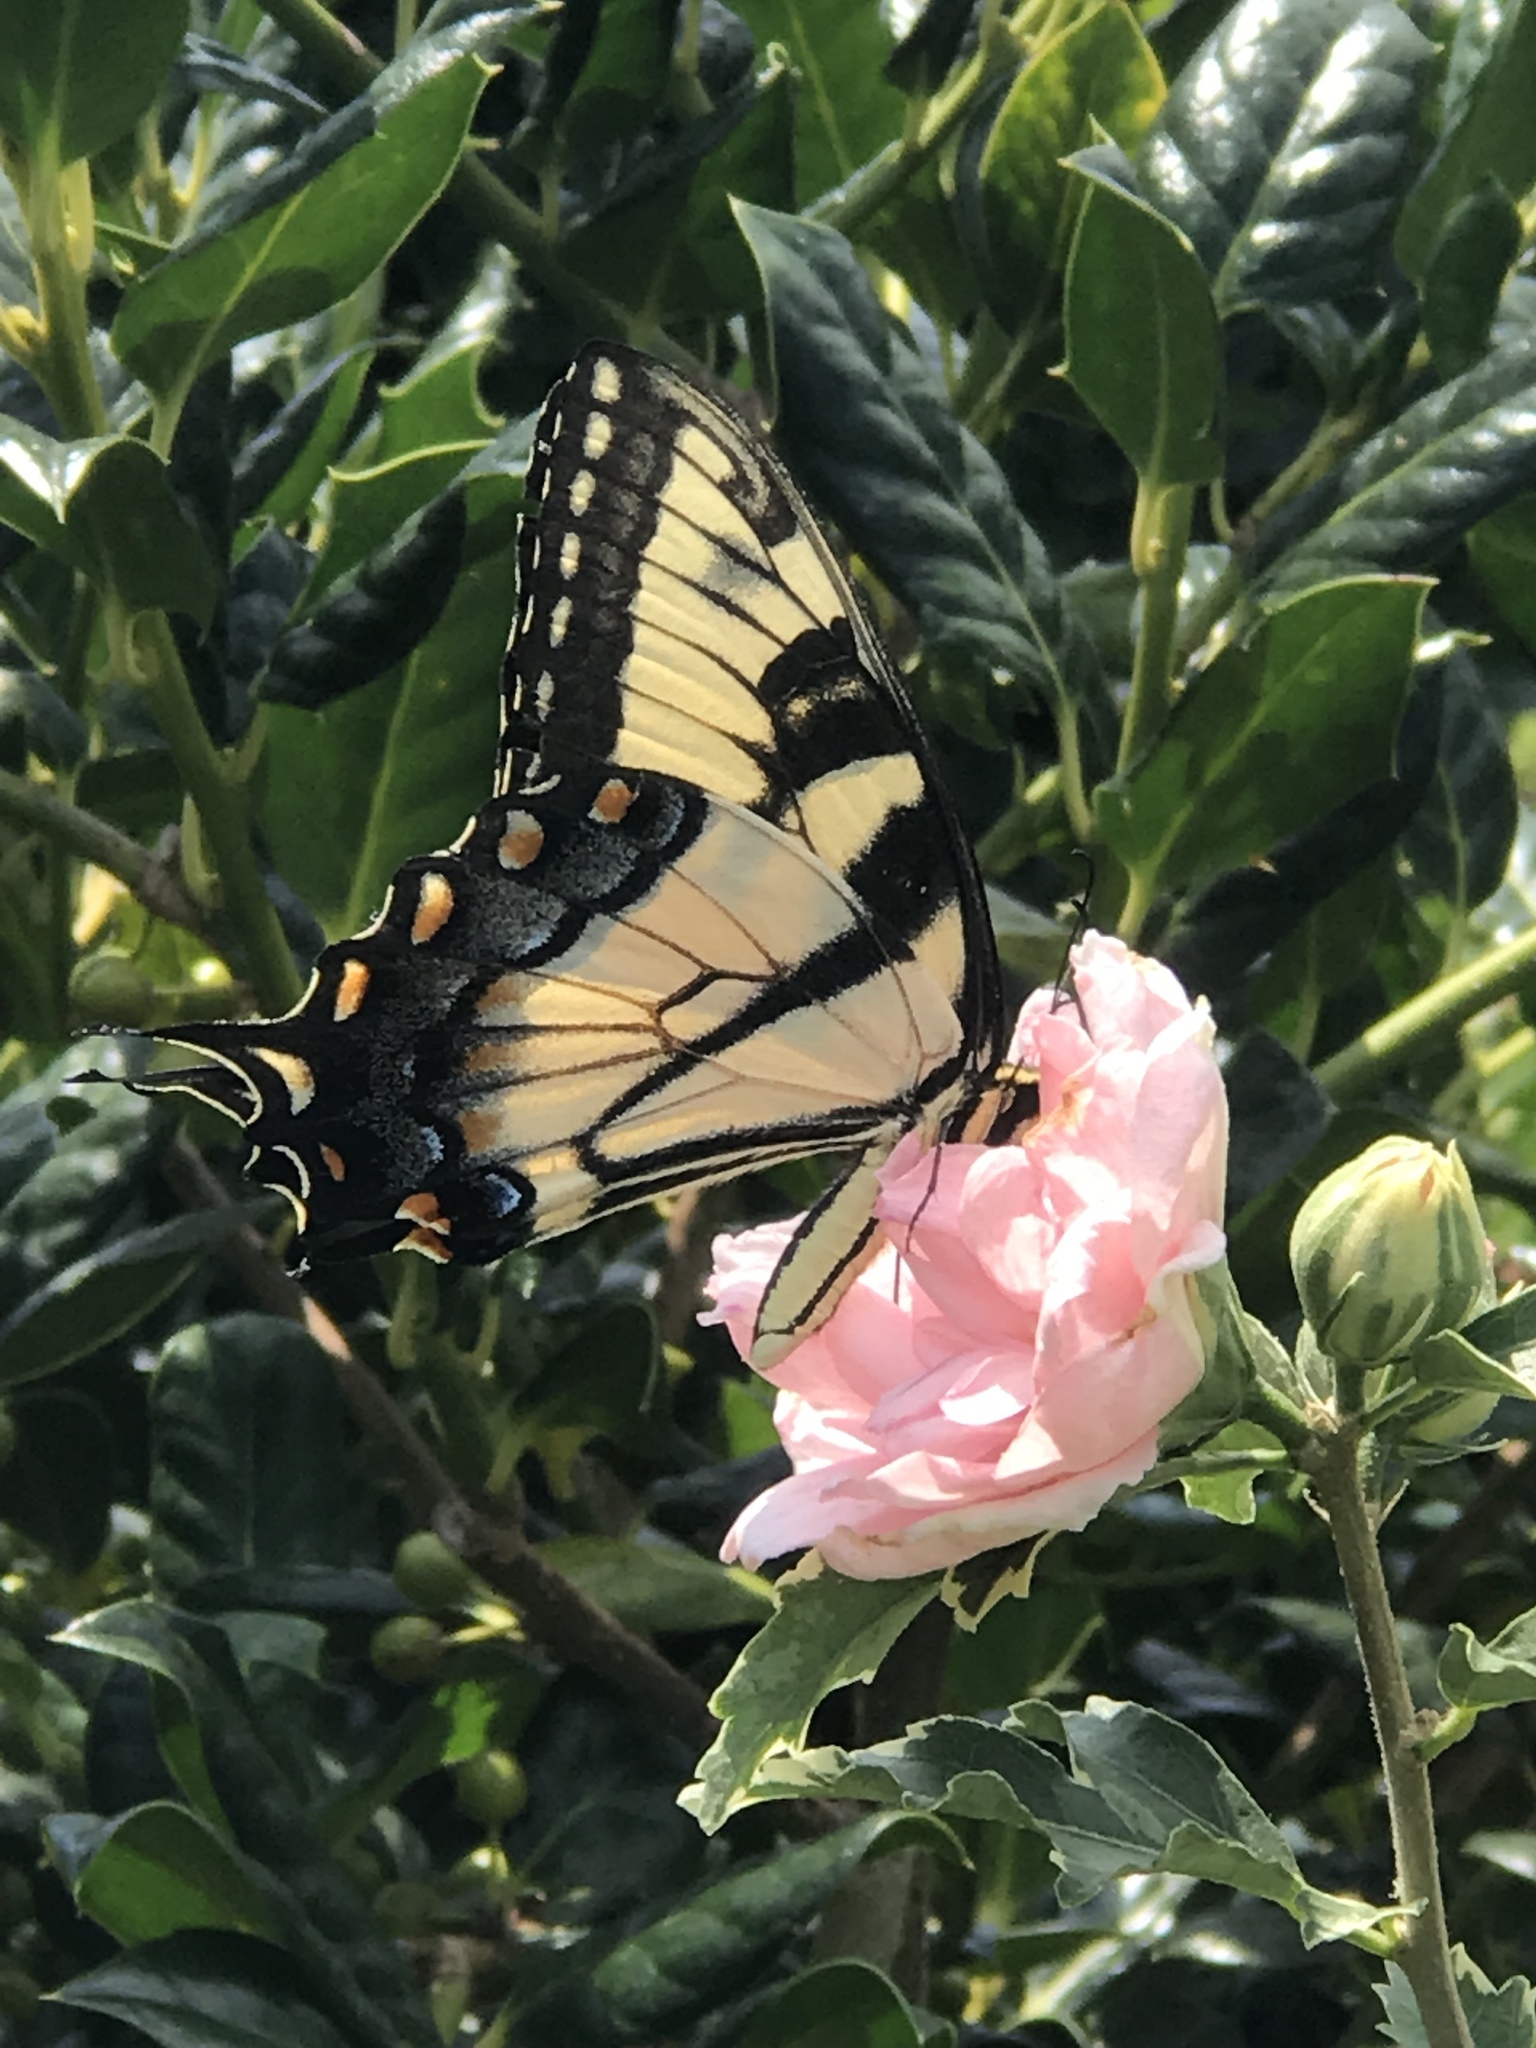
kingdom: Animalia
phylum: Arthropoda
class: Insecta
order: Lepidoptera
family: Papilionidae
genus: Papilio
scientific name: Papilio glaucus
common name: Tiger swallowtail
